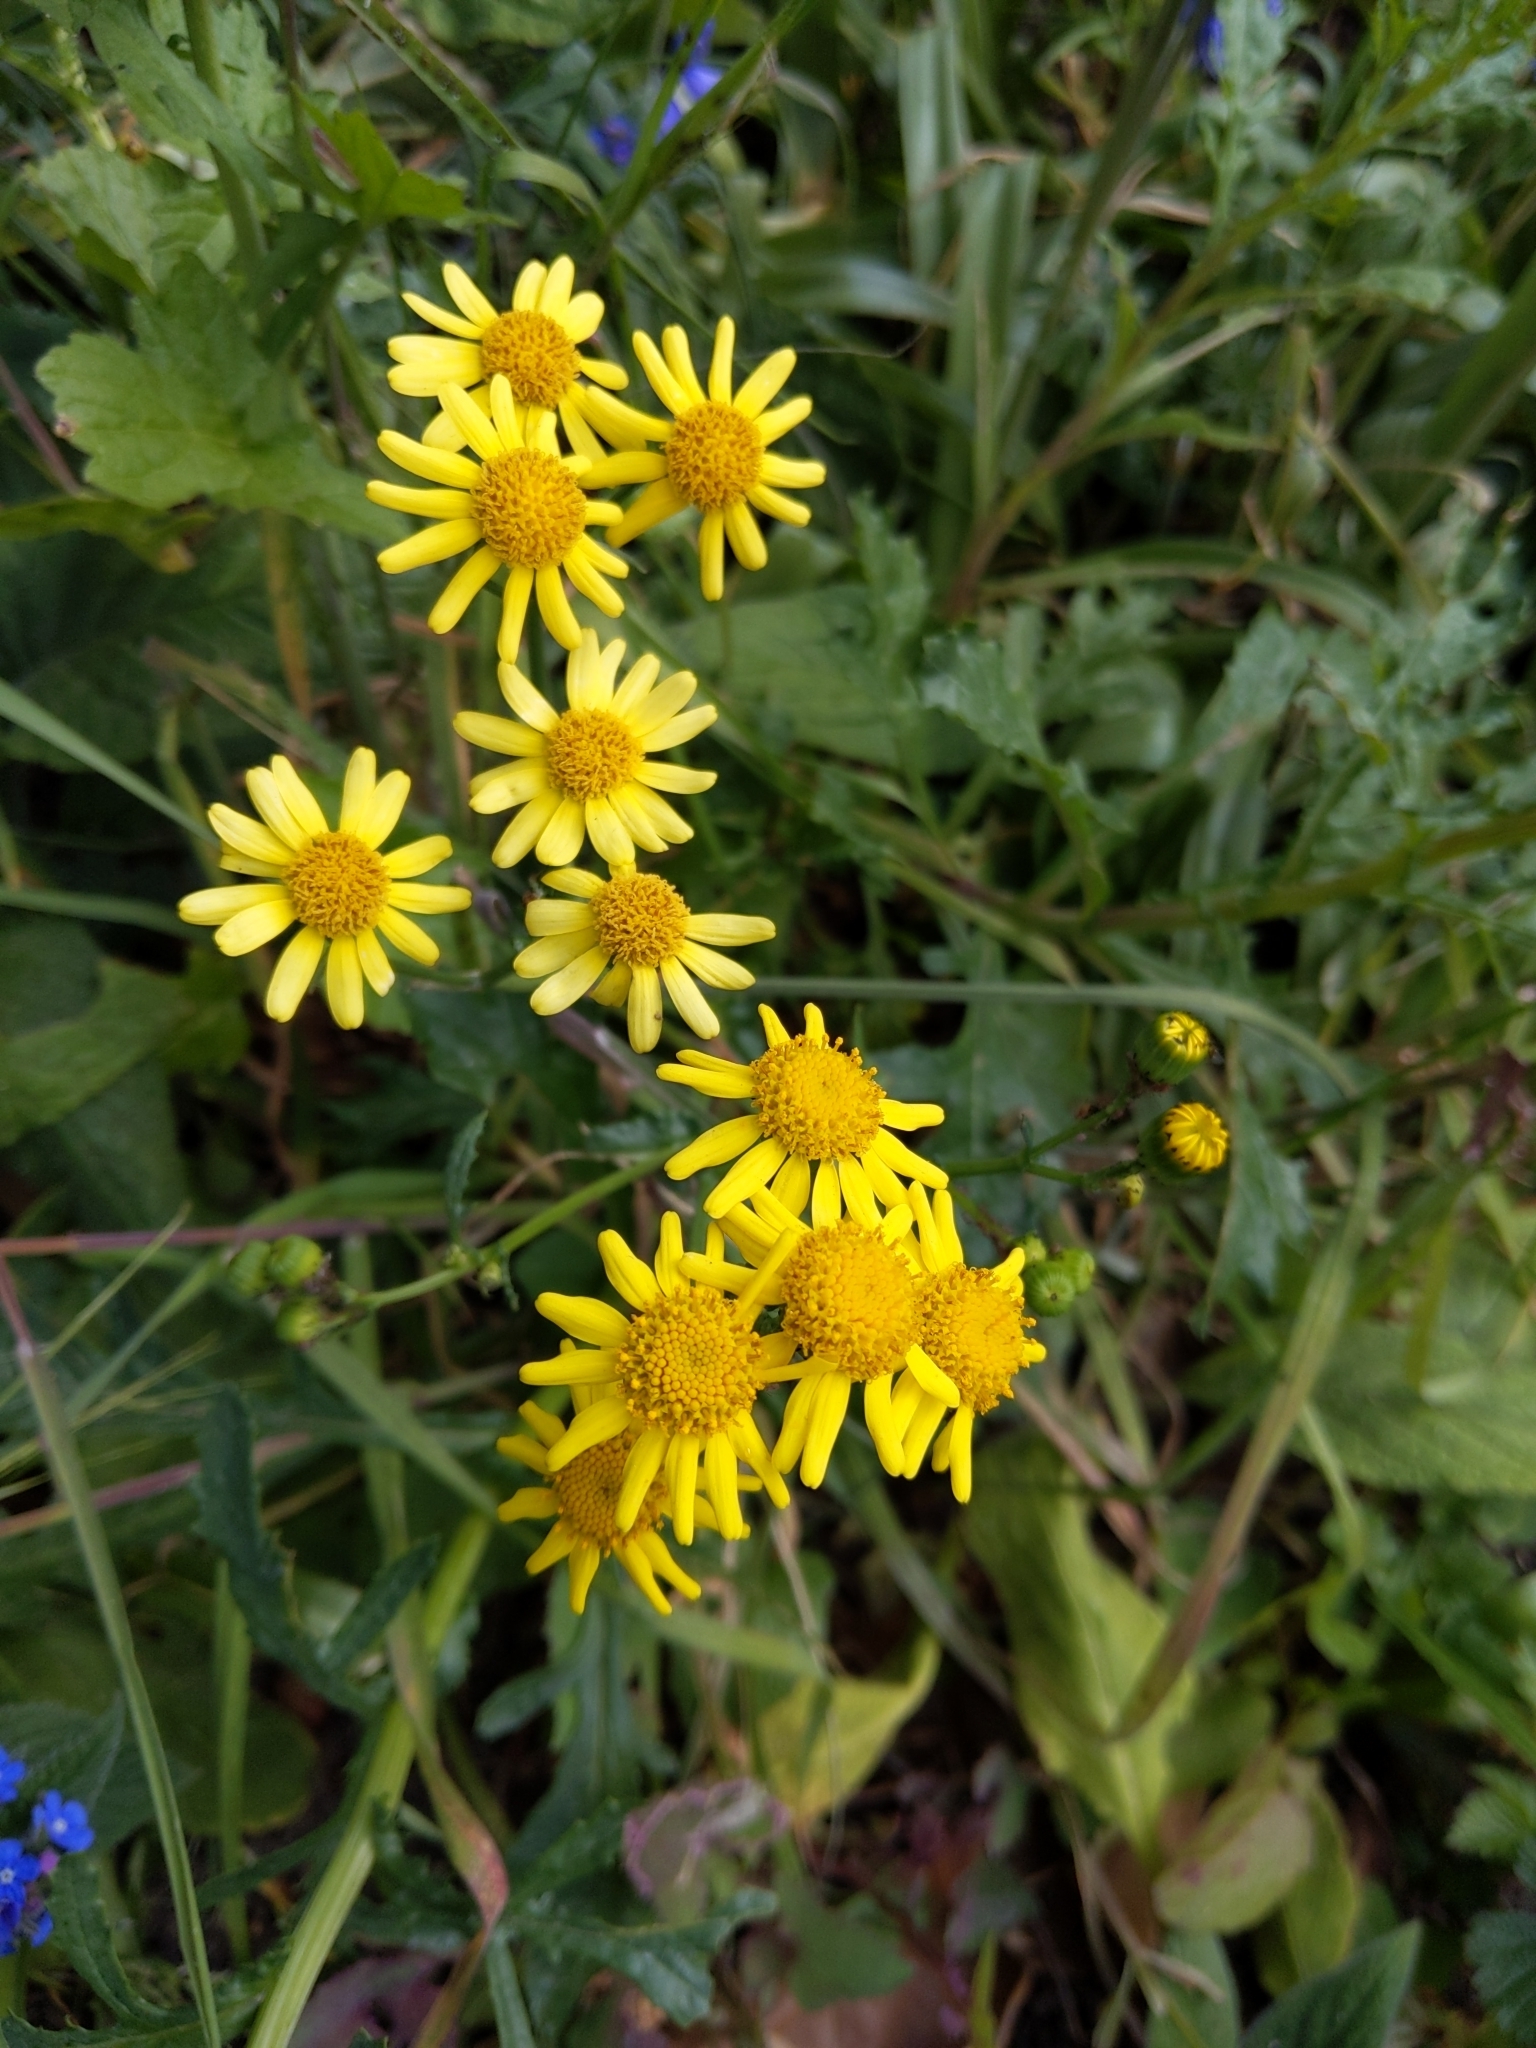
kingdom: Plantae
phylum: Tracheophyta
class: Magnoliopsida
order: Asterales
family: Asteraceae
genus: Senecio
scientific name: Senecio squalidus
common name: Oxford ragwort
